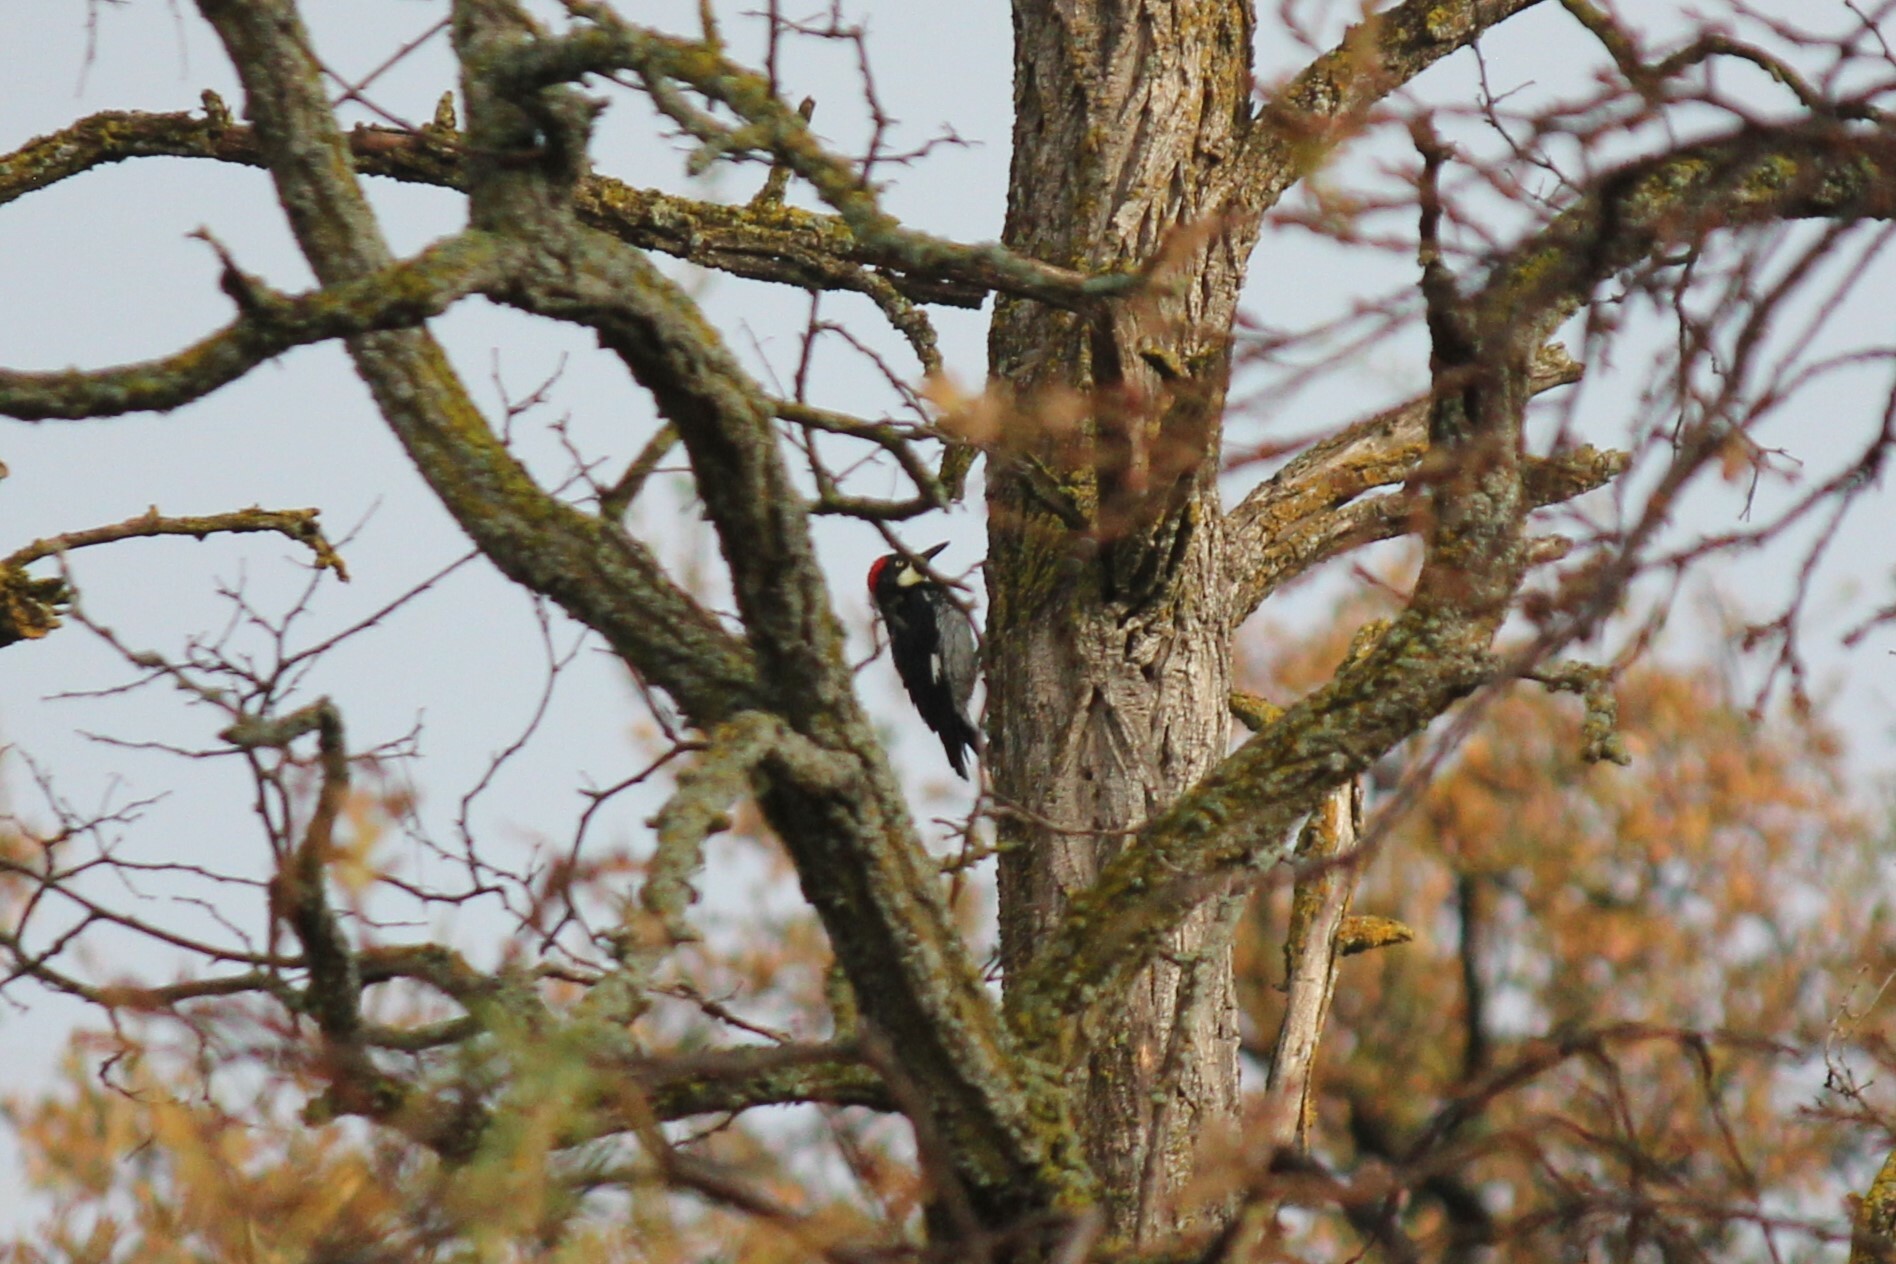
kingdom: Animalia
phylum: Chordata
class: Aves
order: Piciformes
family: Picidae
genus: Melanerpes
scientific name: Melanerpes formicivorus
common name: Acorn woodpecker
